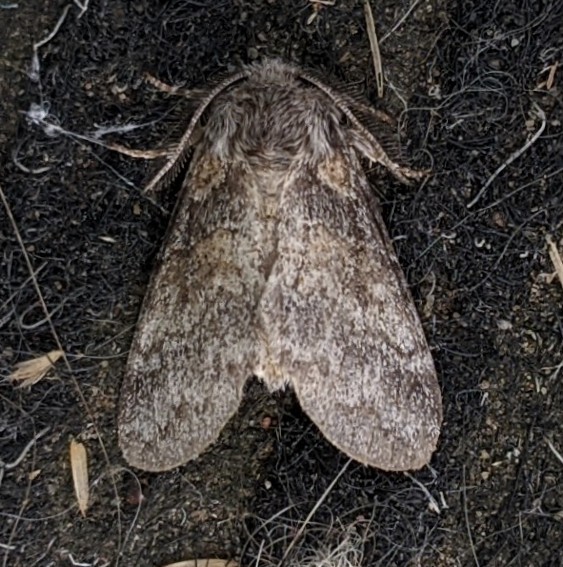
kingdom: Animalia
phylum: Arthropoda
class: Insecta
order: Lepidoptera
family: Notodontidae
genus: Gluphisia
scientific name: Gluphisia septentrionis
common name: Common gluphisia
